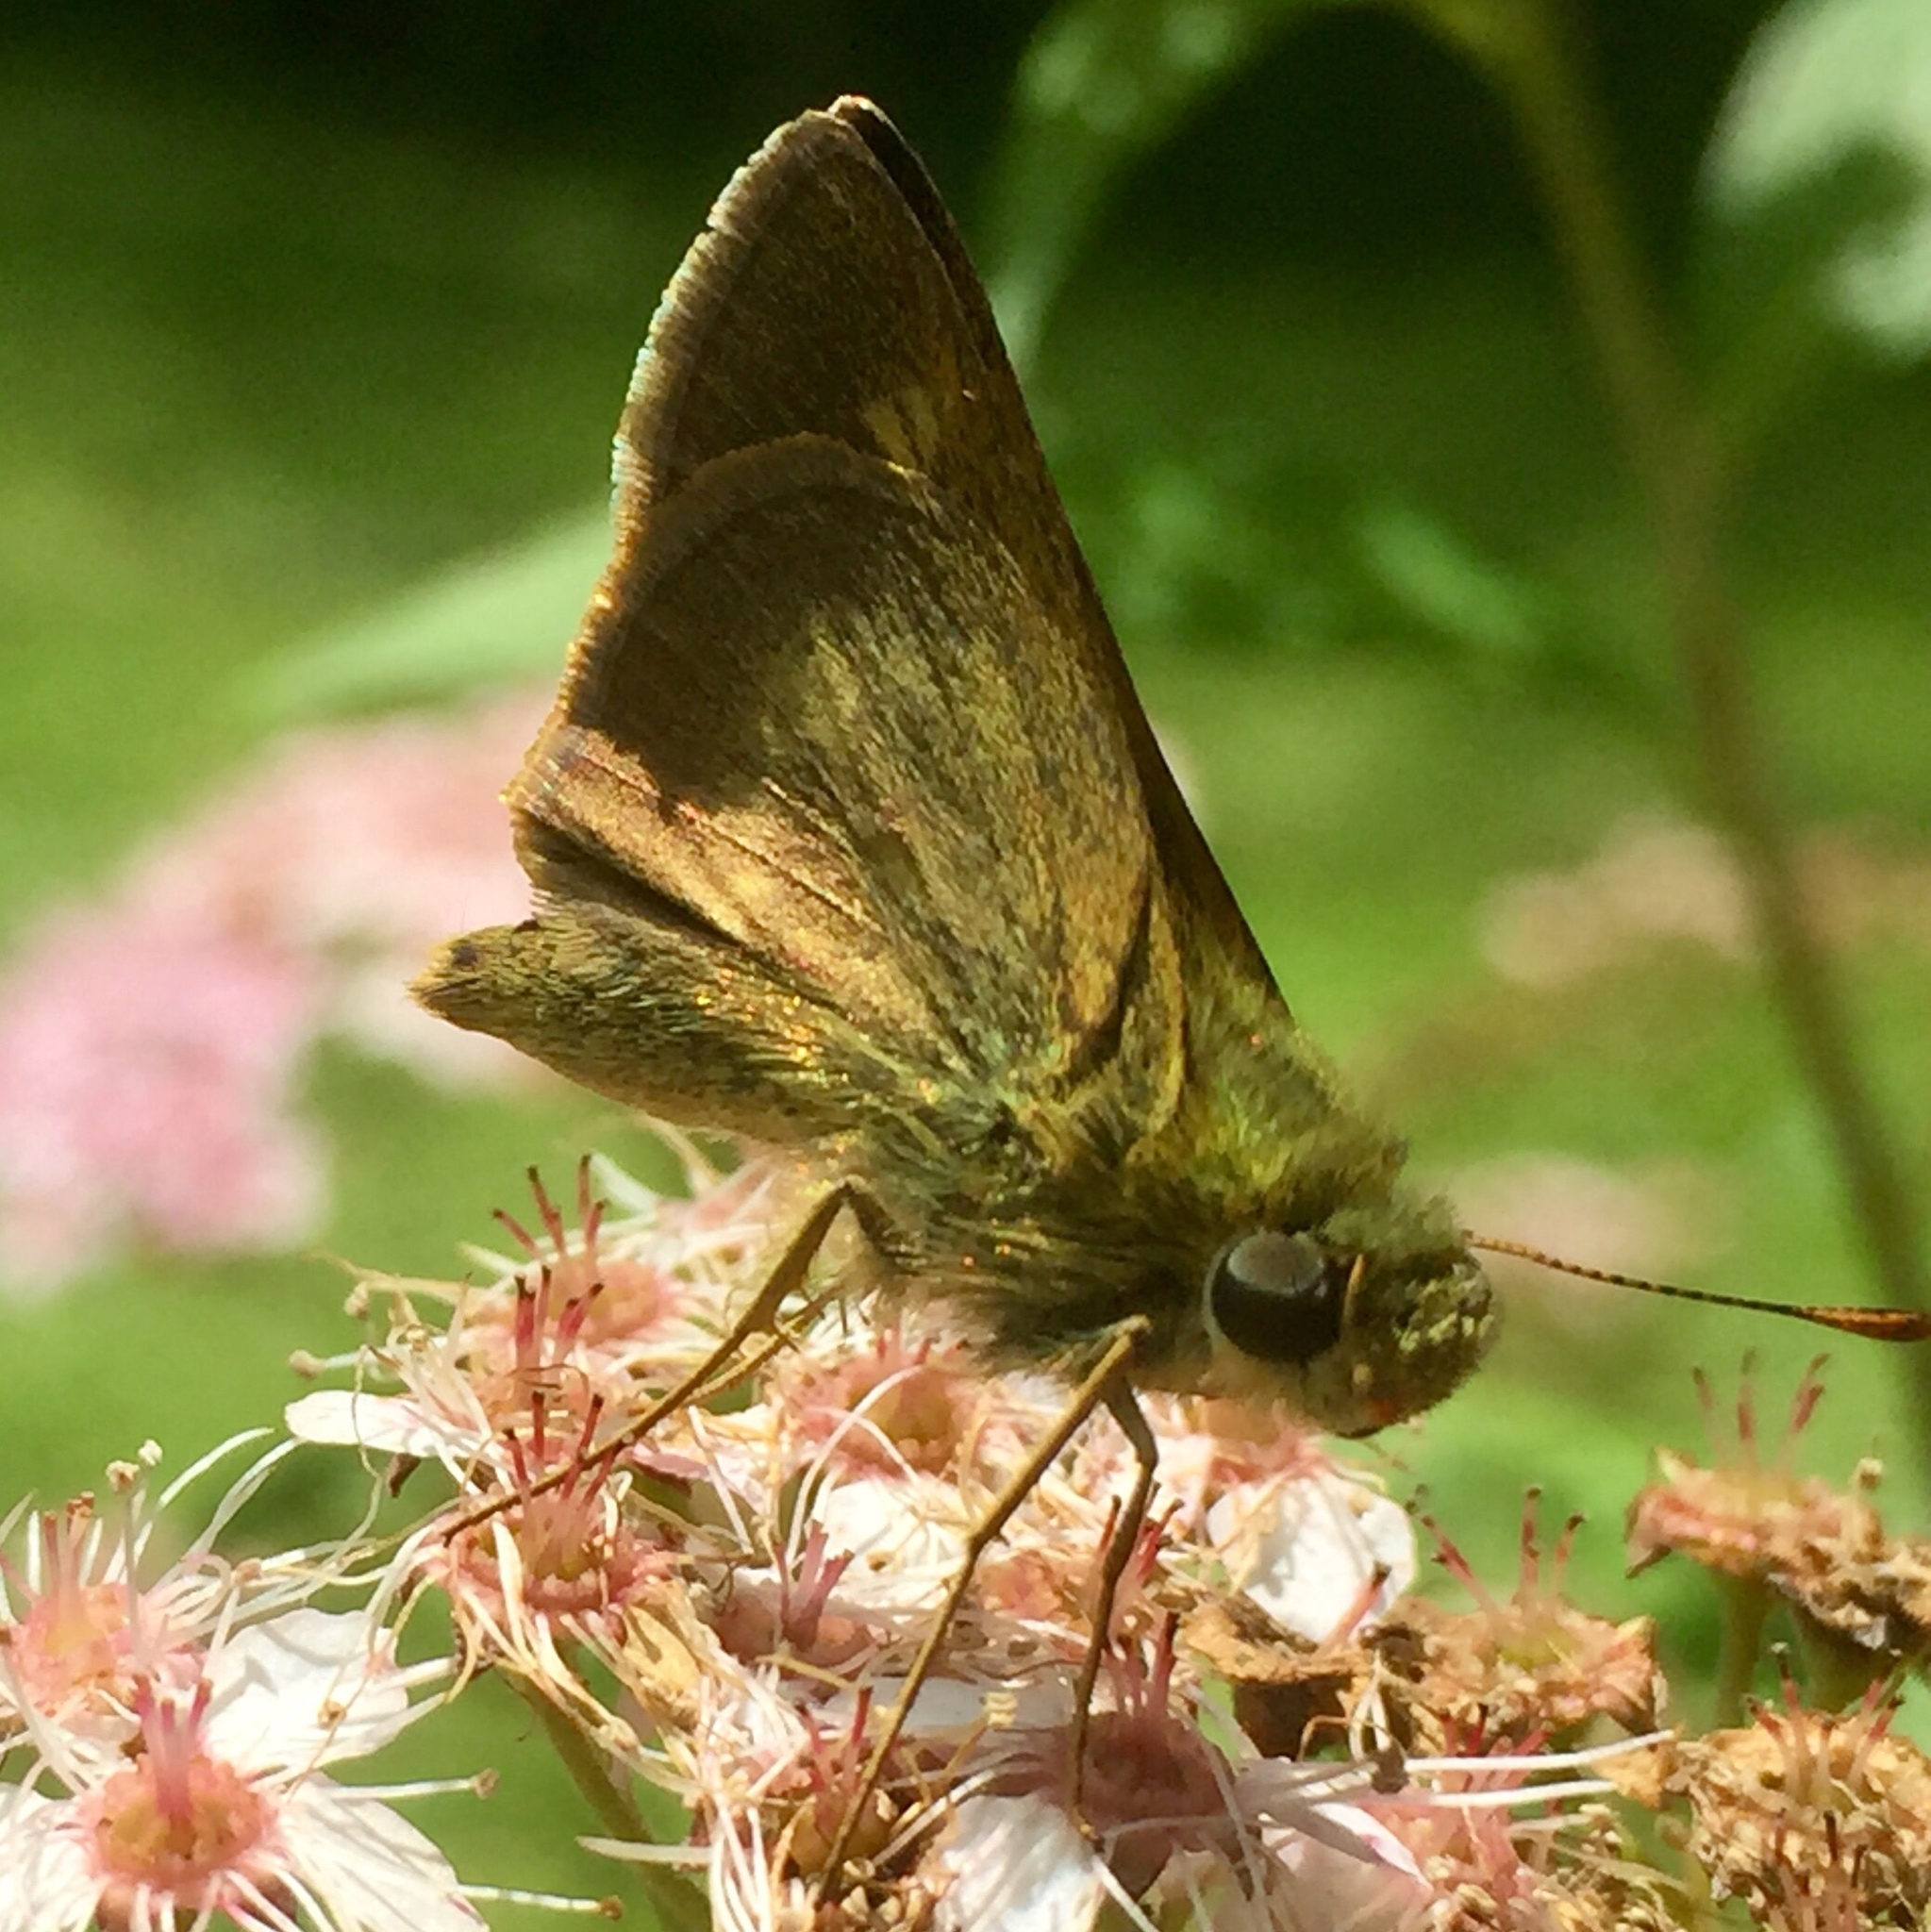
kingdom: Animalia
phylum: Arthropoda
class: Insecta
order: Lepidoptera
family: Hesperiidae
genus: Polites
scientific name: Polites egeremet
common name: Northern broken-dash
